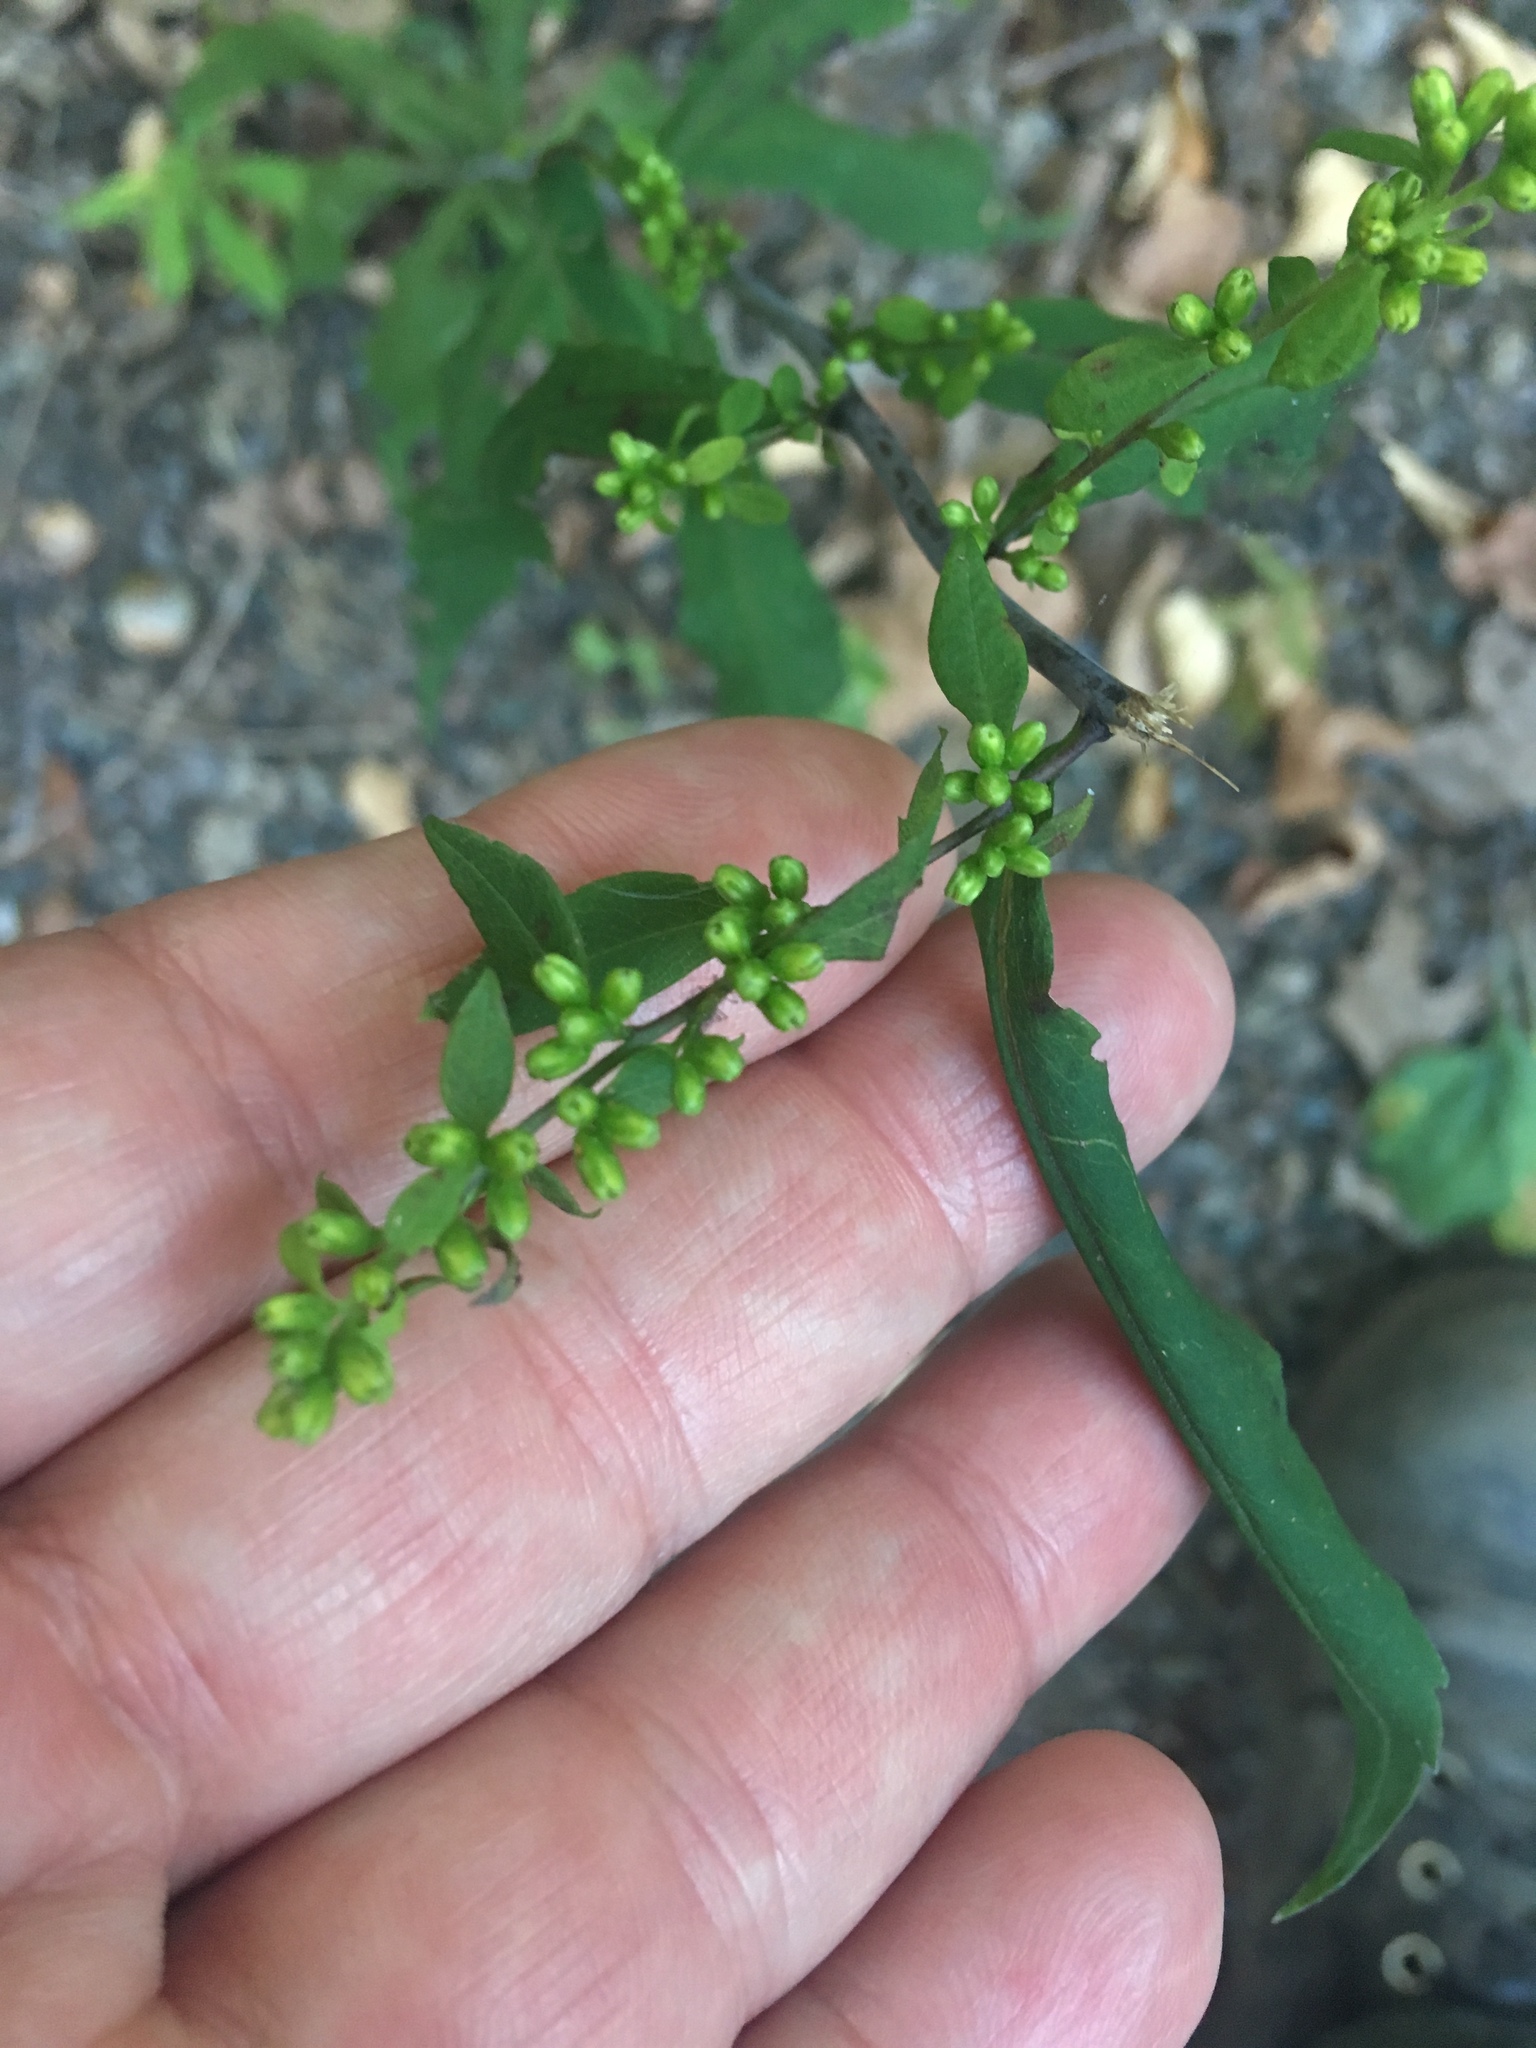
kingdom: Plantae
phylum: Tracheophyta
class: Magnoliopsida
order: Asterales
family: Asteraceae
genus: Solidago
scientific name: Solidago caesia
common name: Woodland goldenrod
